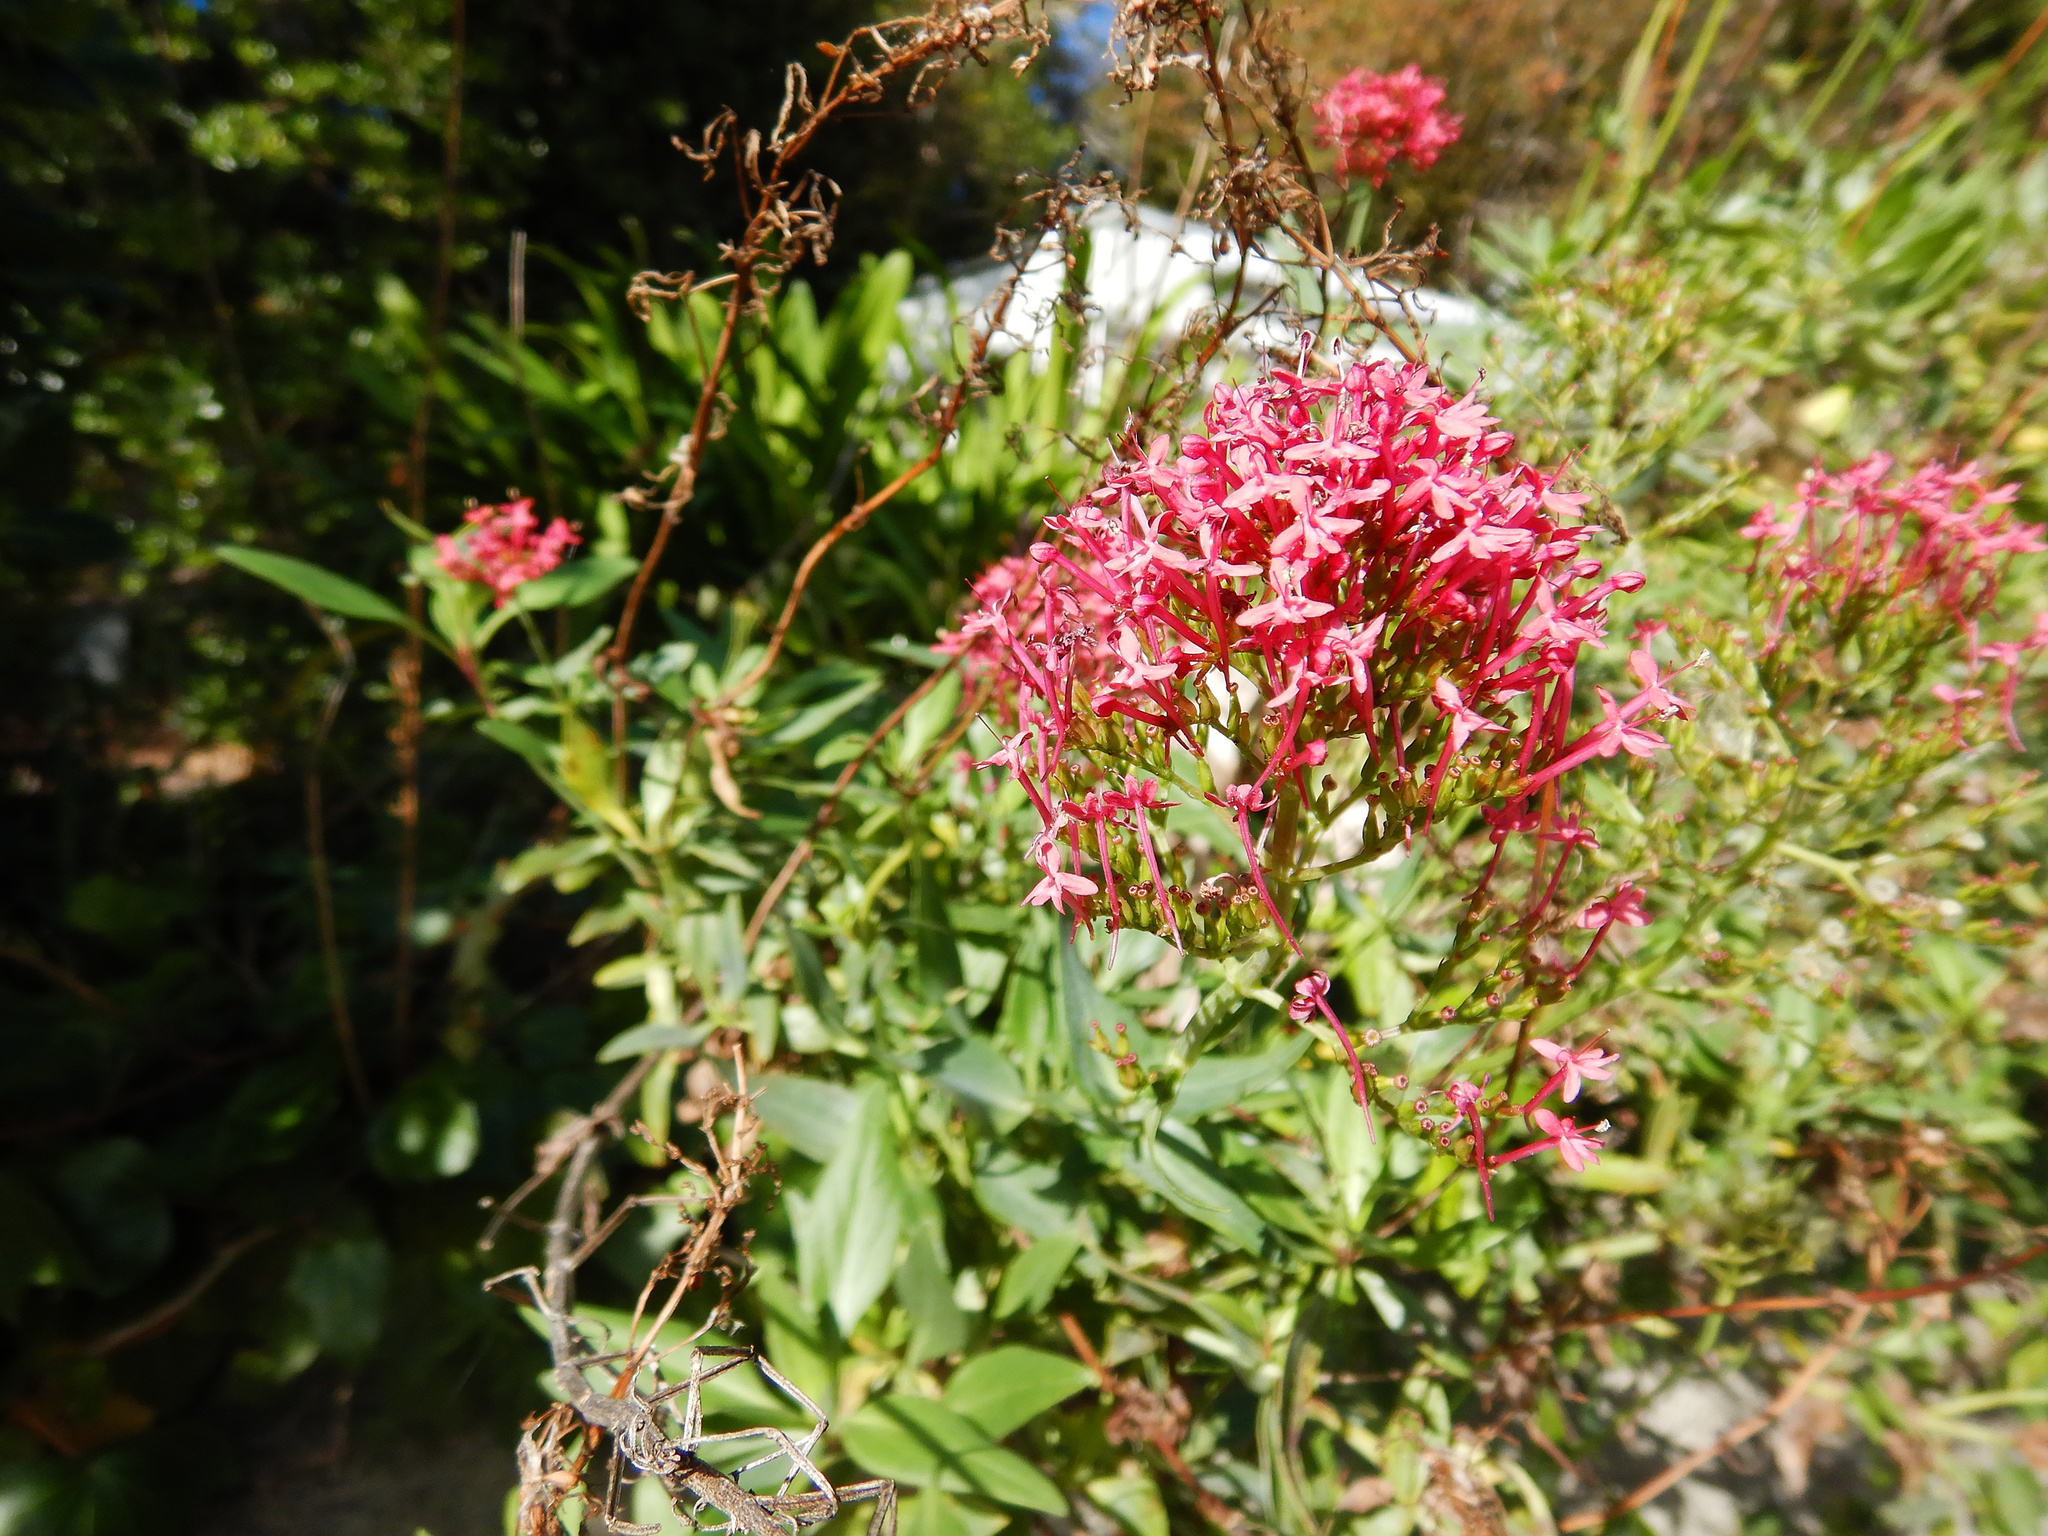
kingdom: Plantae
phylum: Tracheophyta
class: Magnoliopsida
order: Dipsacales
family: Caprifoliaceae
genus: Centranthus
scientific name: Centranthus ruber
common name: Red valerian
